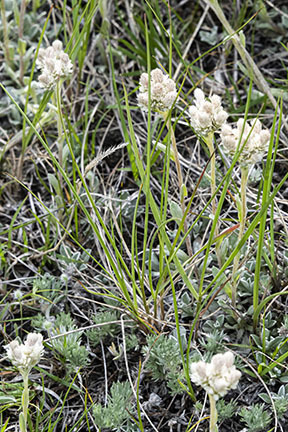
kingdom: Plantae
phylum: Tracheophyta
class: Magnoliopsida
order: Asterales
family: Asteraceae
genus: Antennaria
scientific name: Antennaria
